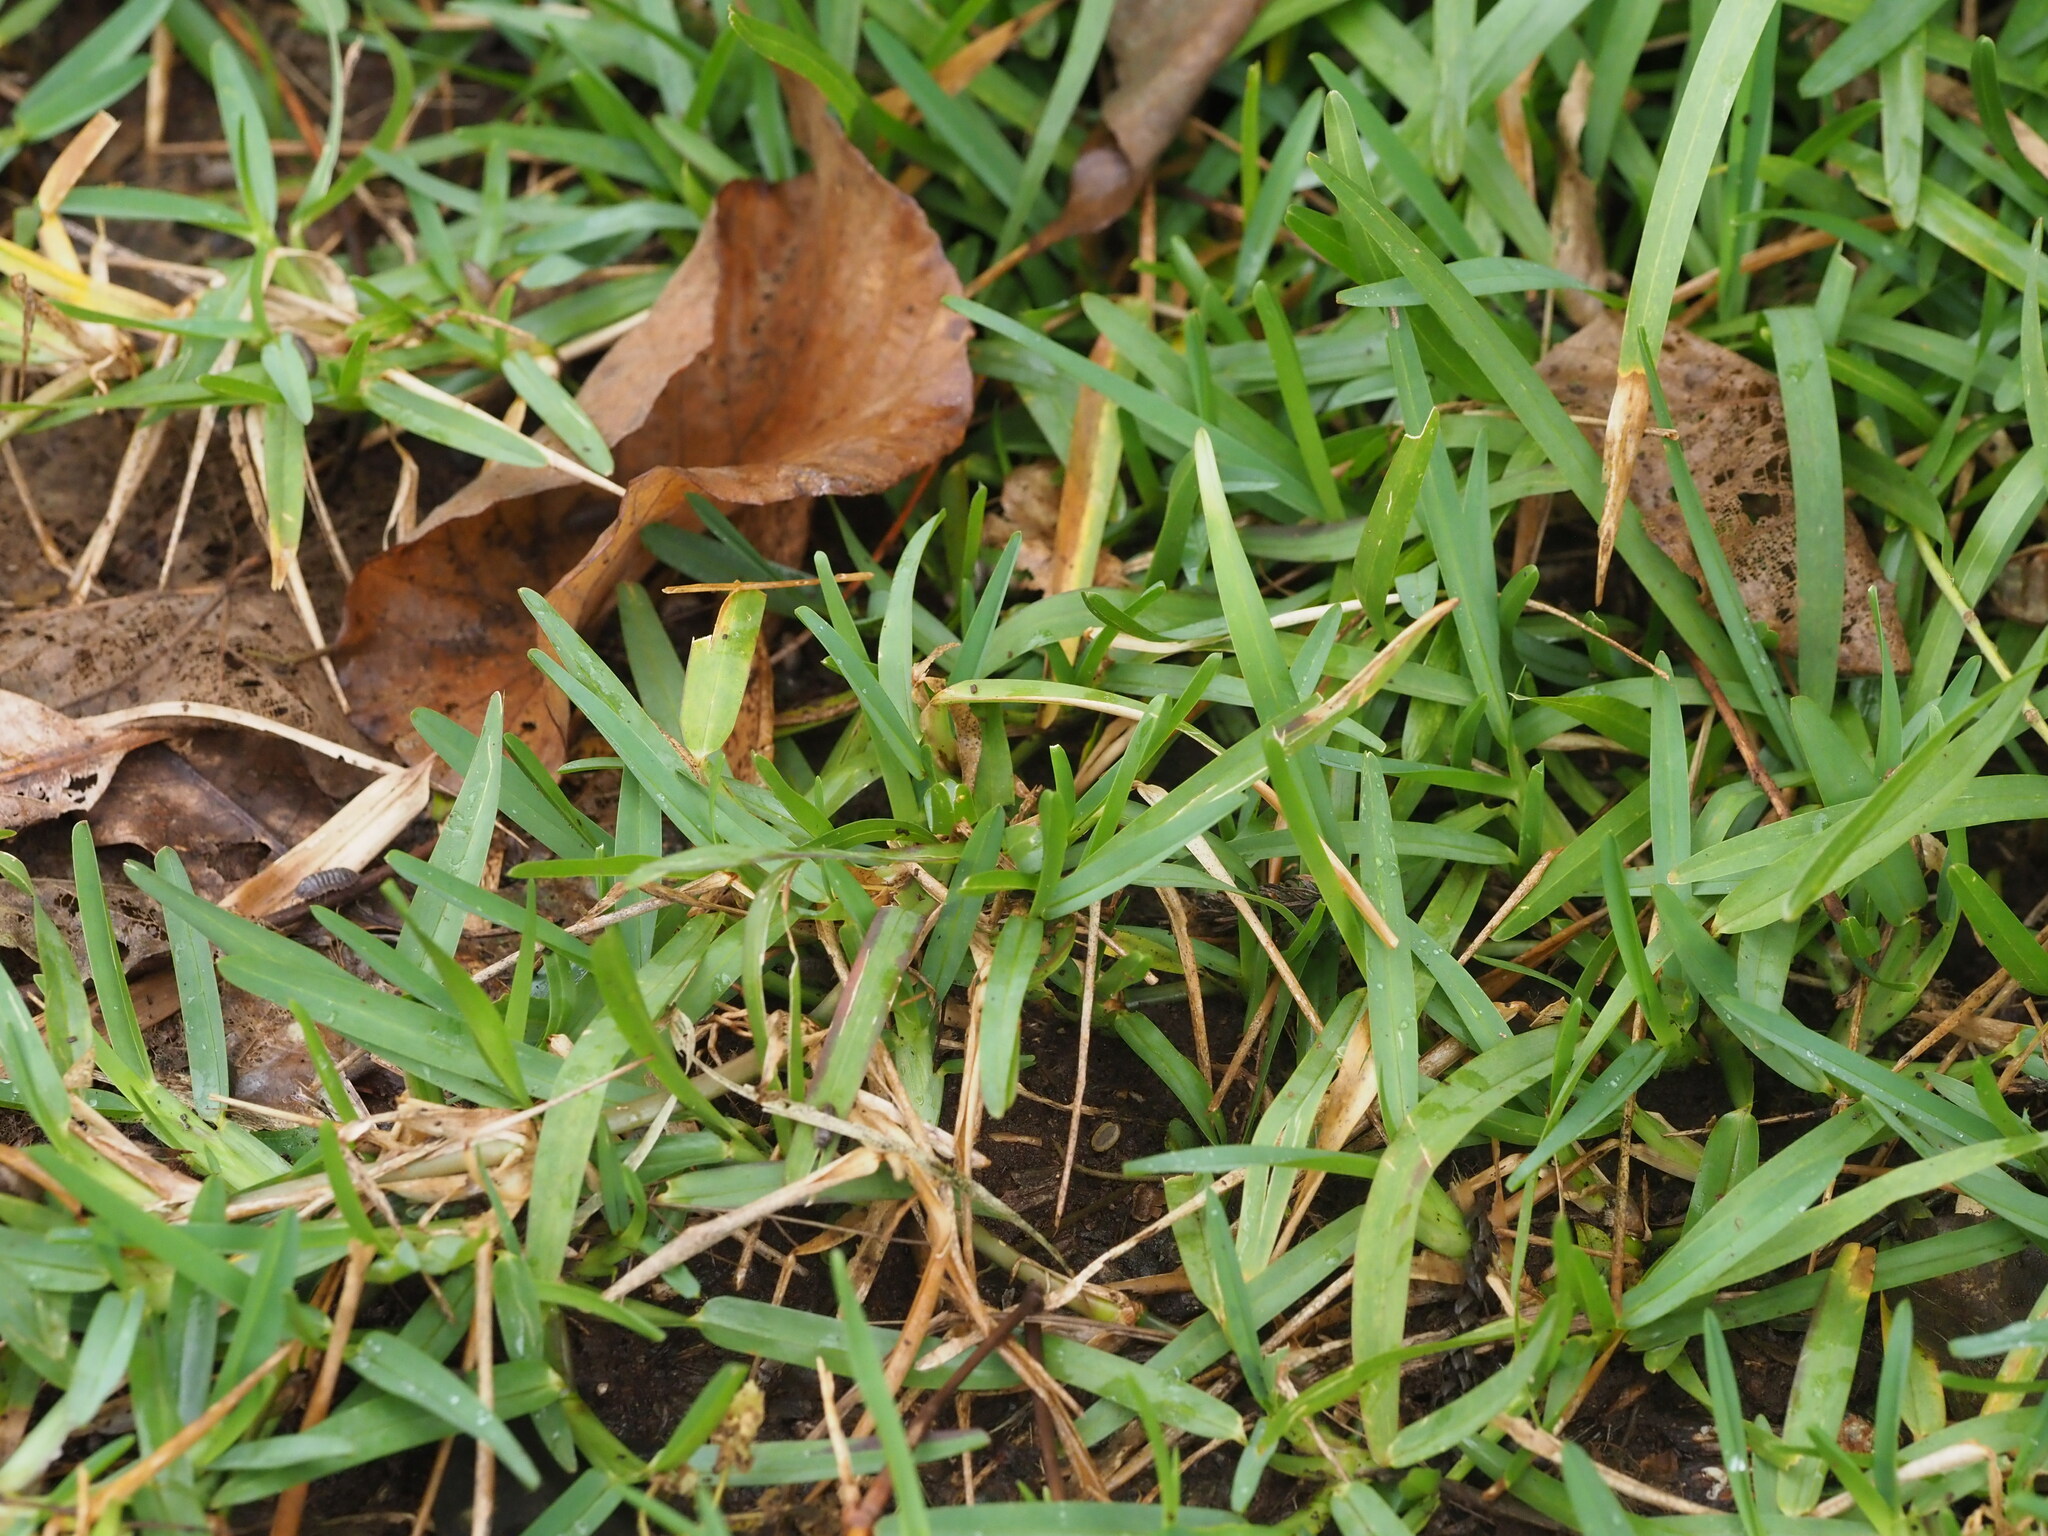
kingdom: Plantae
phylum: Tracheophyta
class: Liliopsida
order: Poales
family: Poaceae
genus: Stenotaphrum
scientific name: Stenotaphrum secundatum
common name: St. augustine grass
